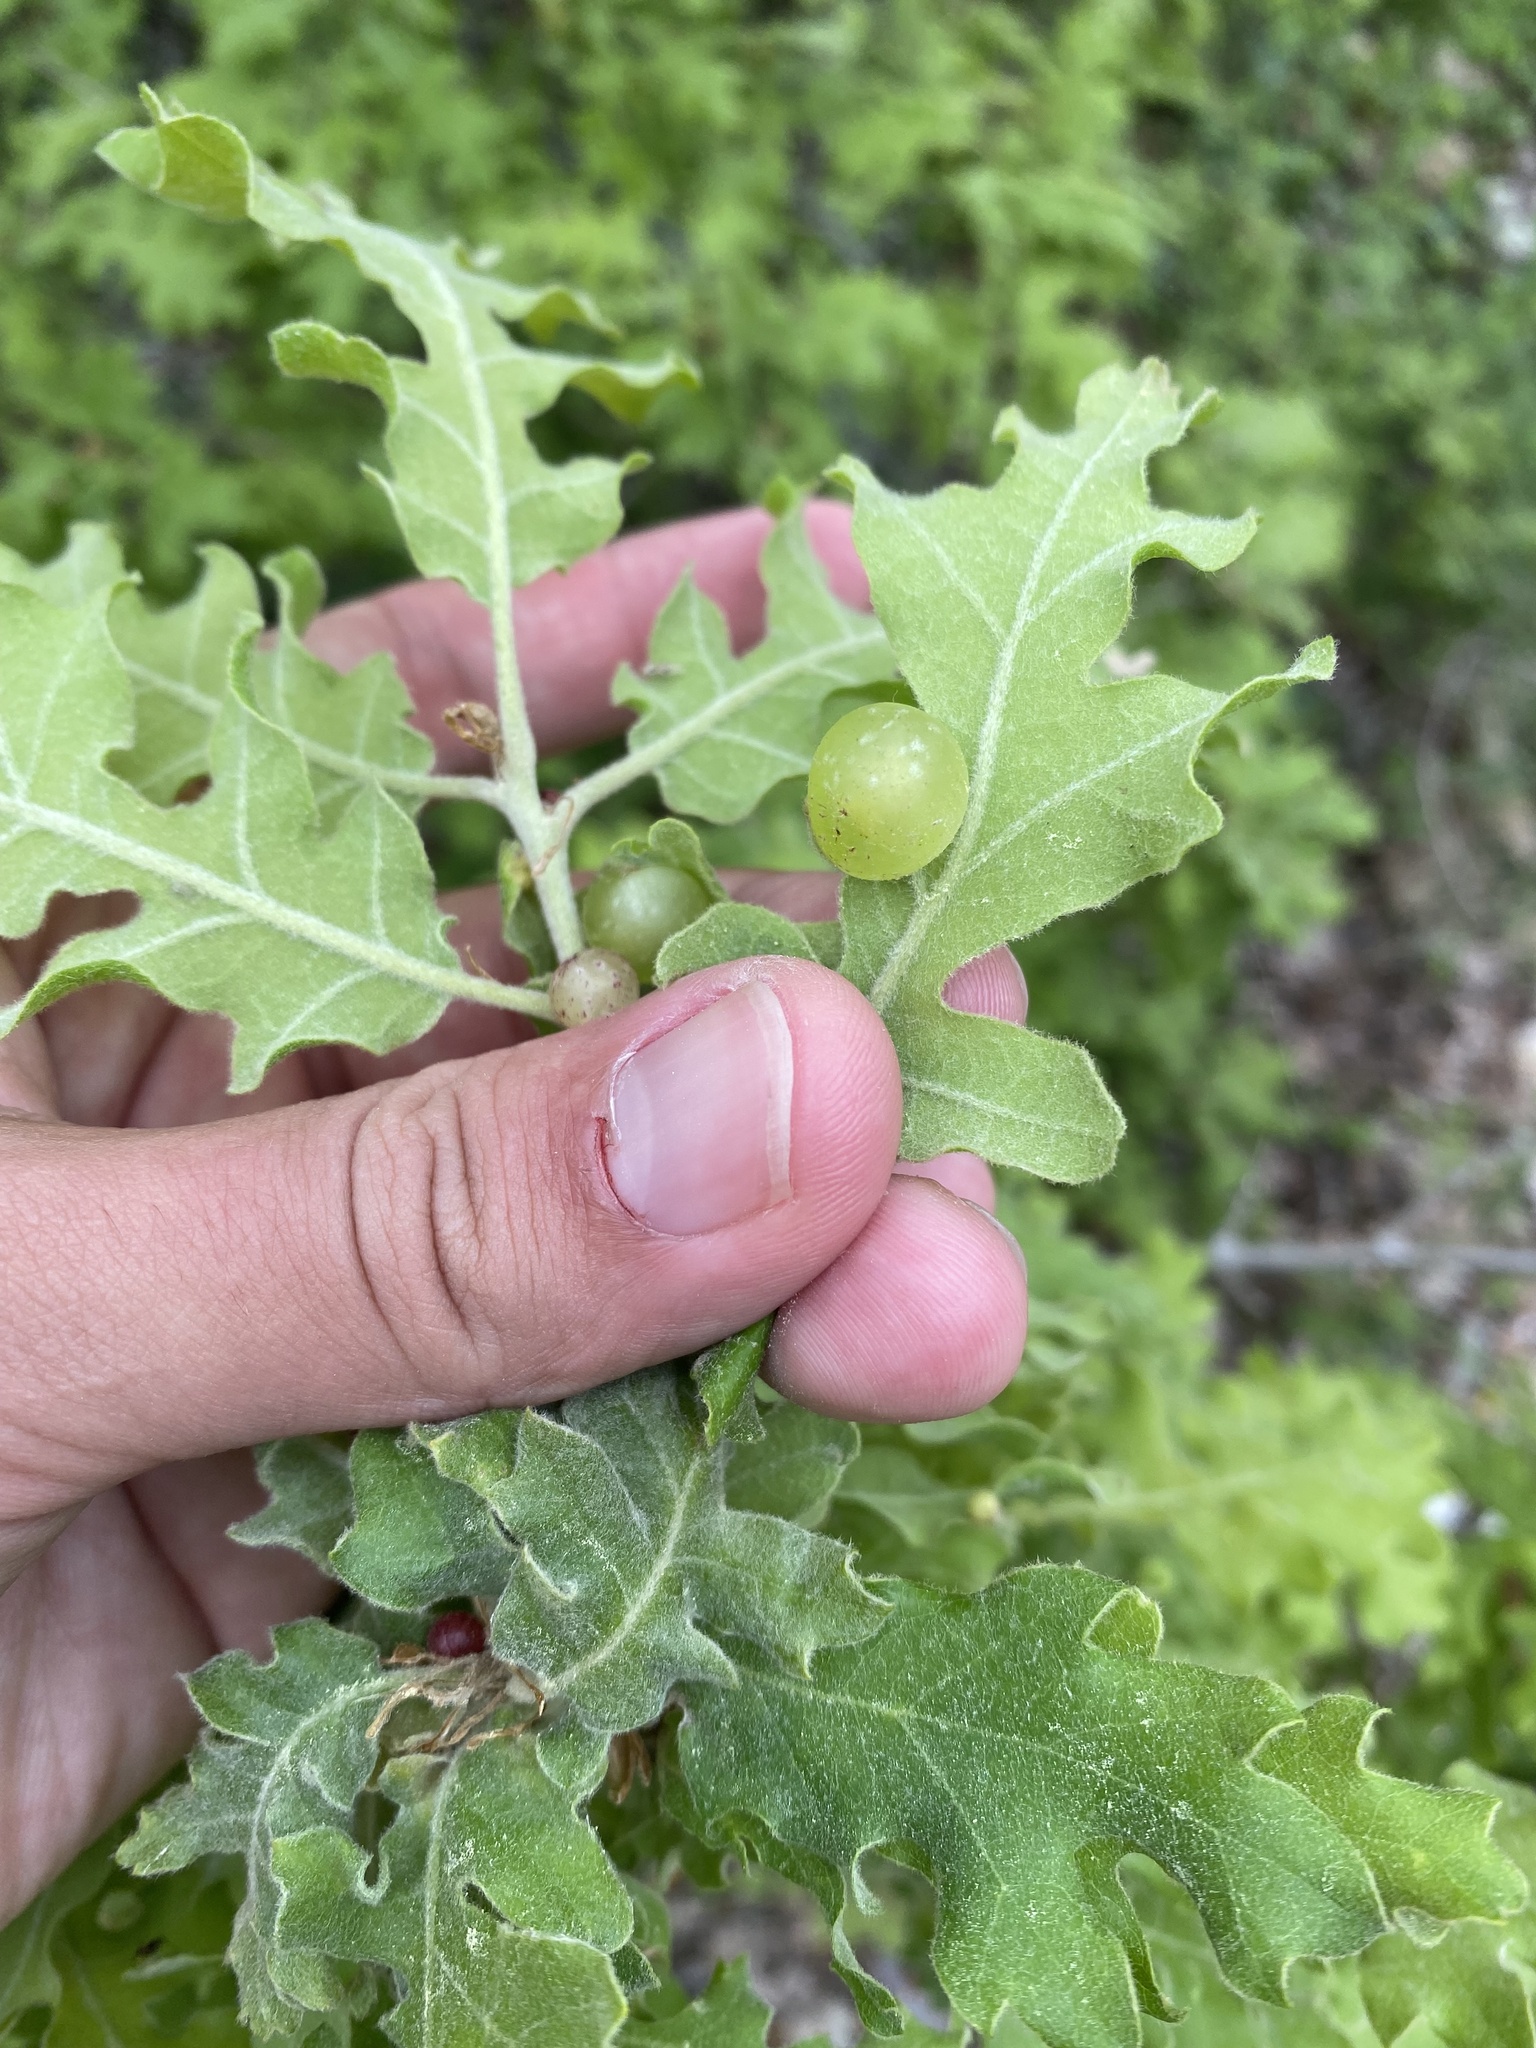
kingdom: Animalia
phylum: Arthropoda
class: Insecta
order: Hymenoptera
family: Cynipidae
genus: Neuroterus
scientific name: Neuroterus quercusbaccarum
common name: Common spangle gall
